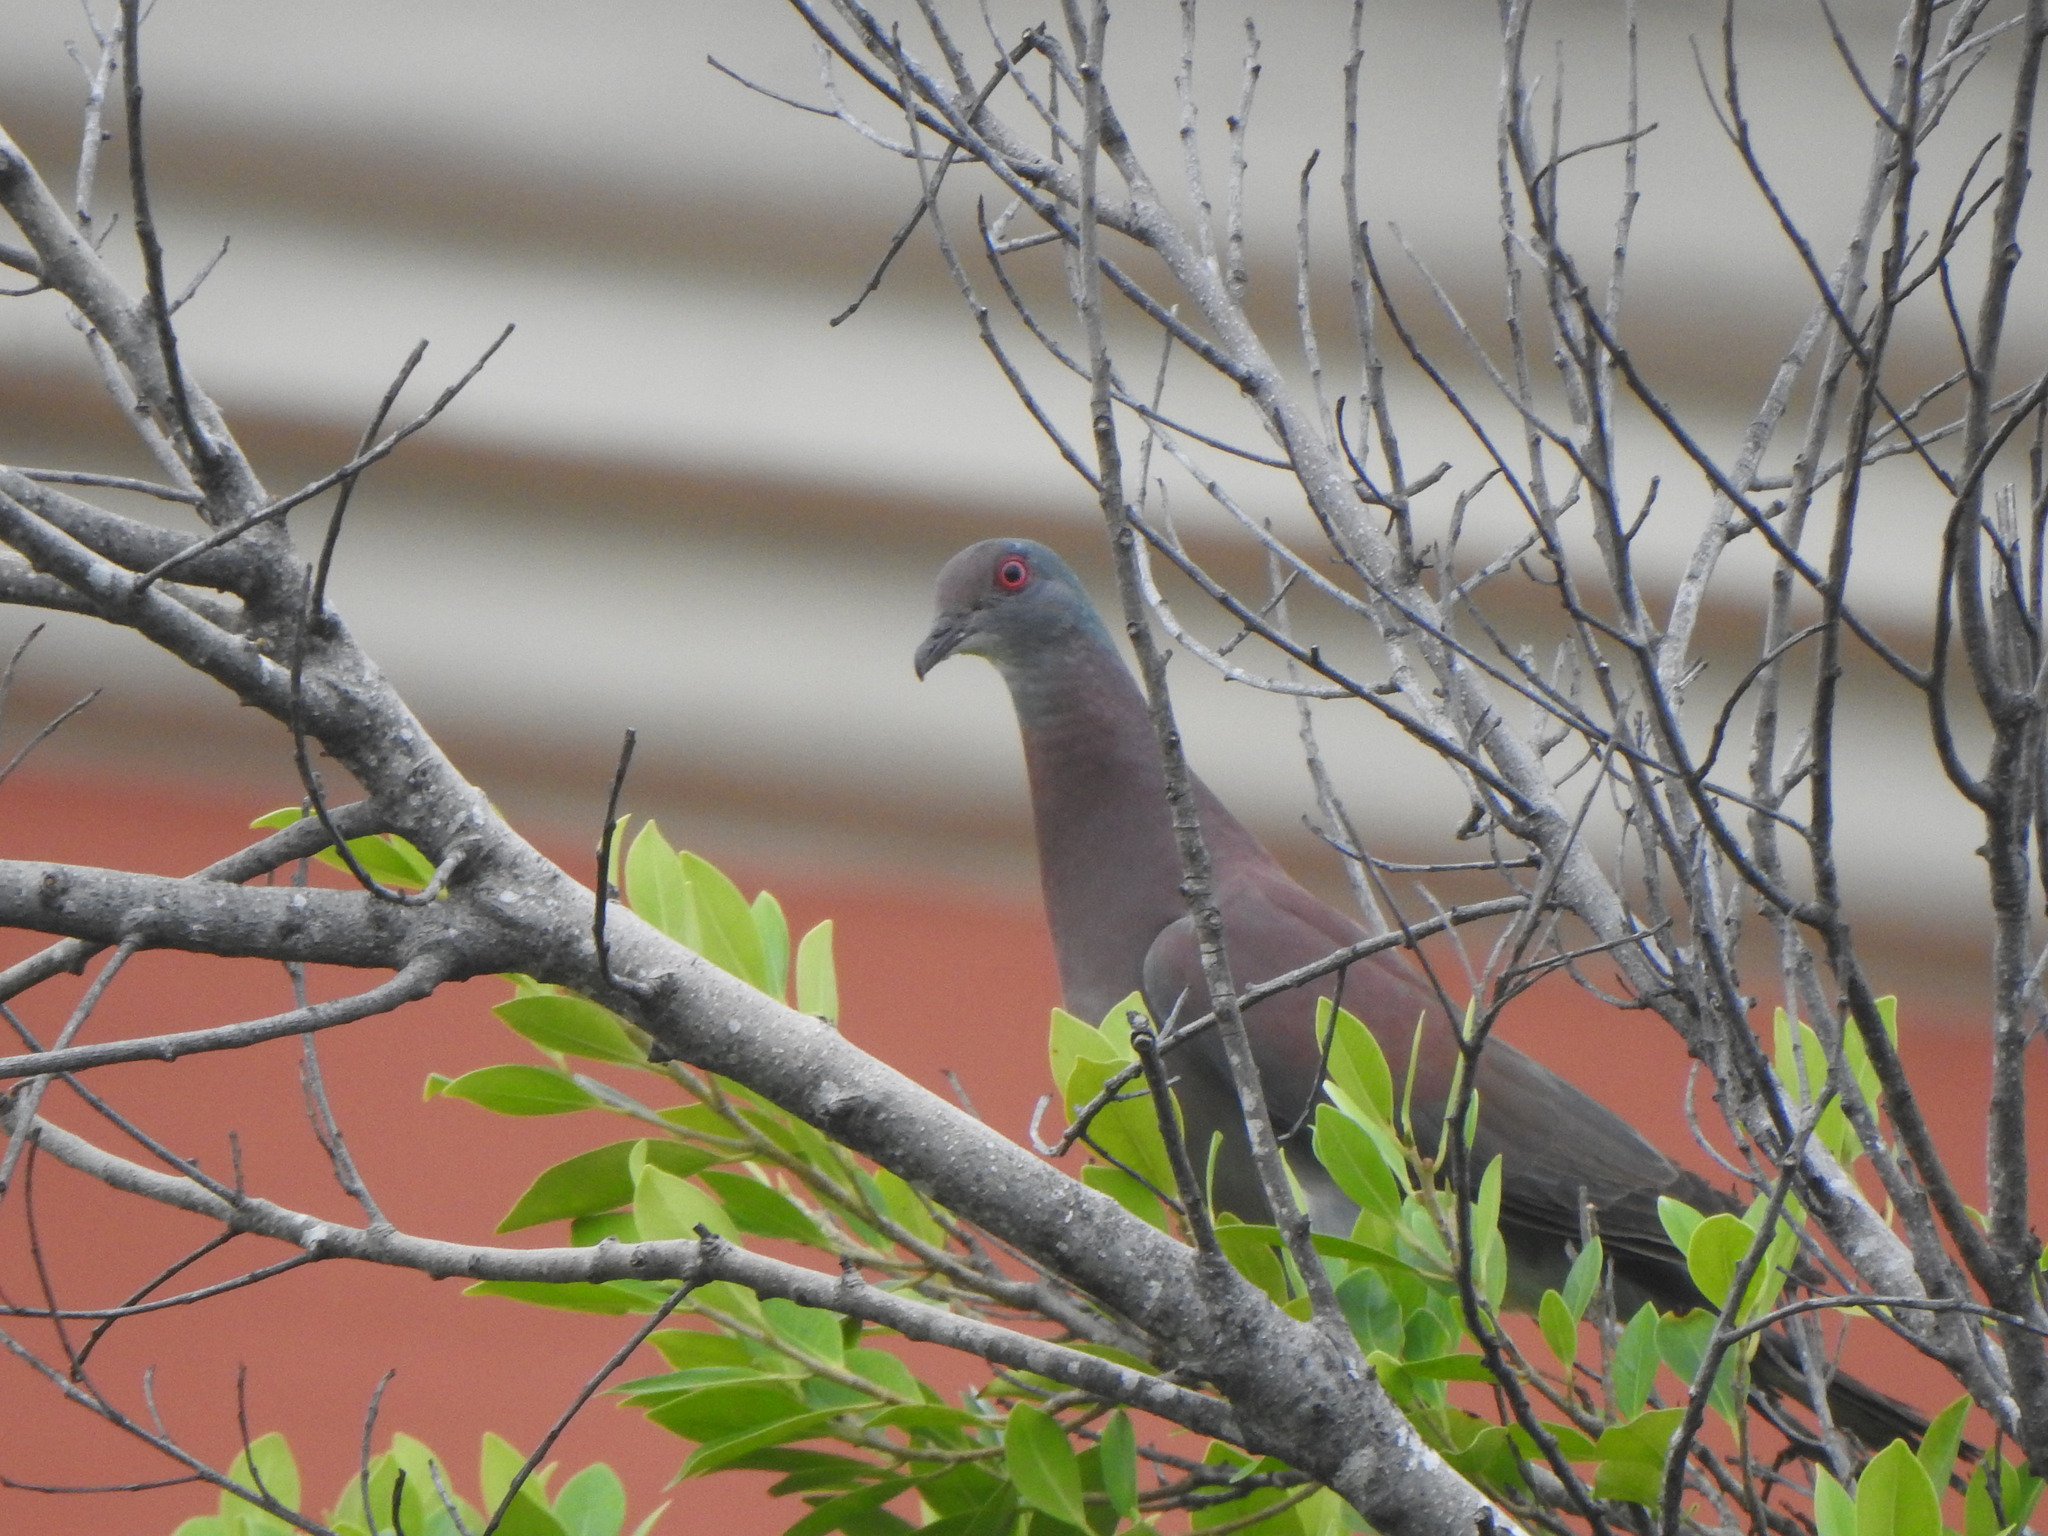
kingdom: Animalia
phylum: Chordata
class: Aves
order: Columbiformes
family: Columbidae
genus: Patagioenas
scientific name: Patagioenas cayennensis
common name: Pale-vented pigeon
